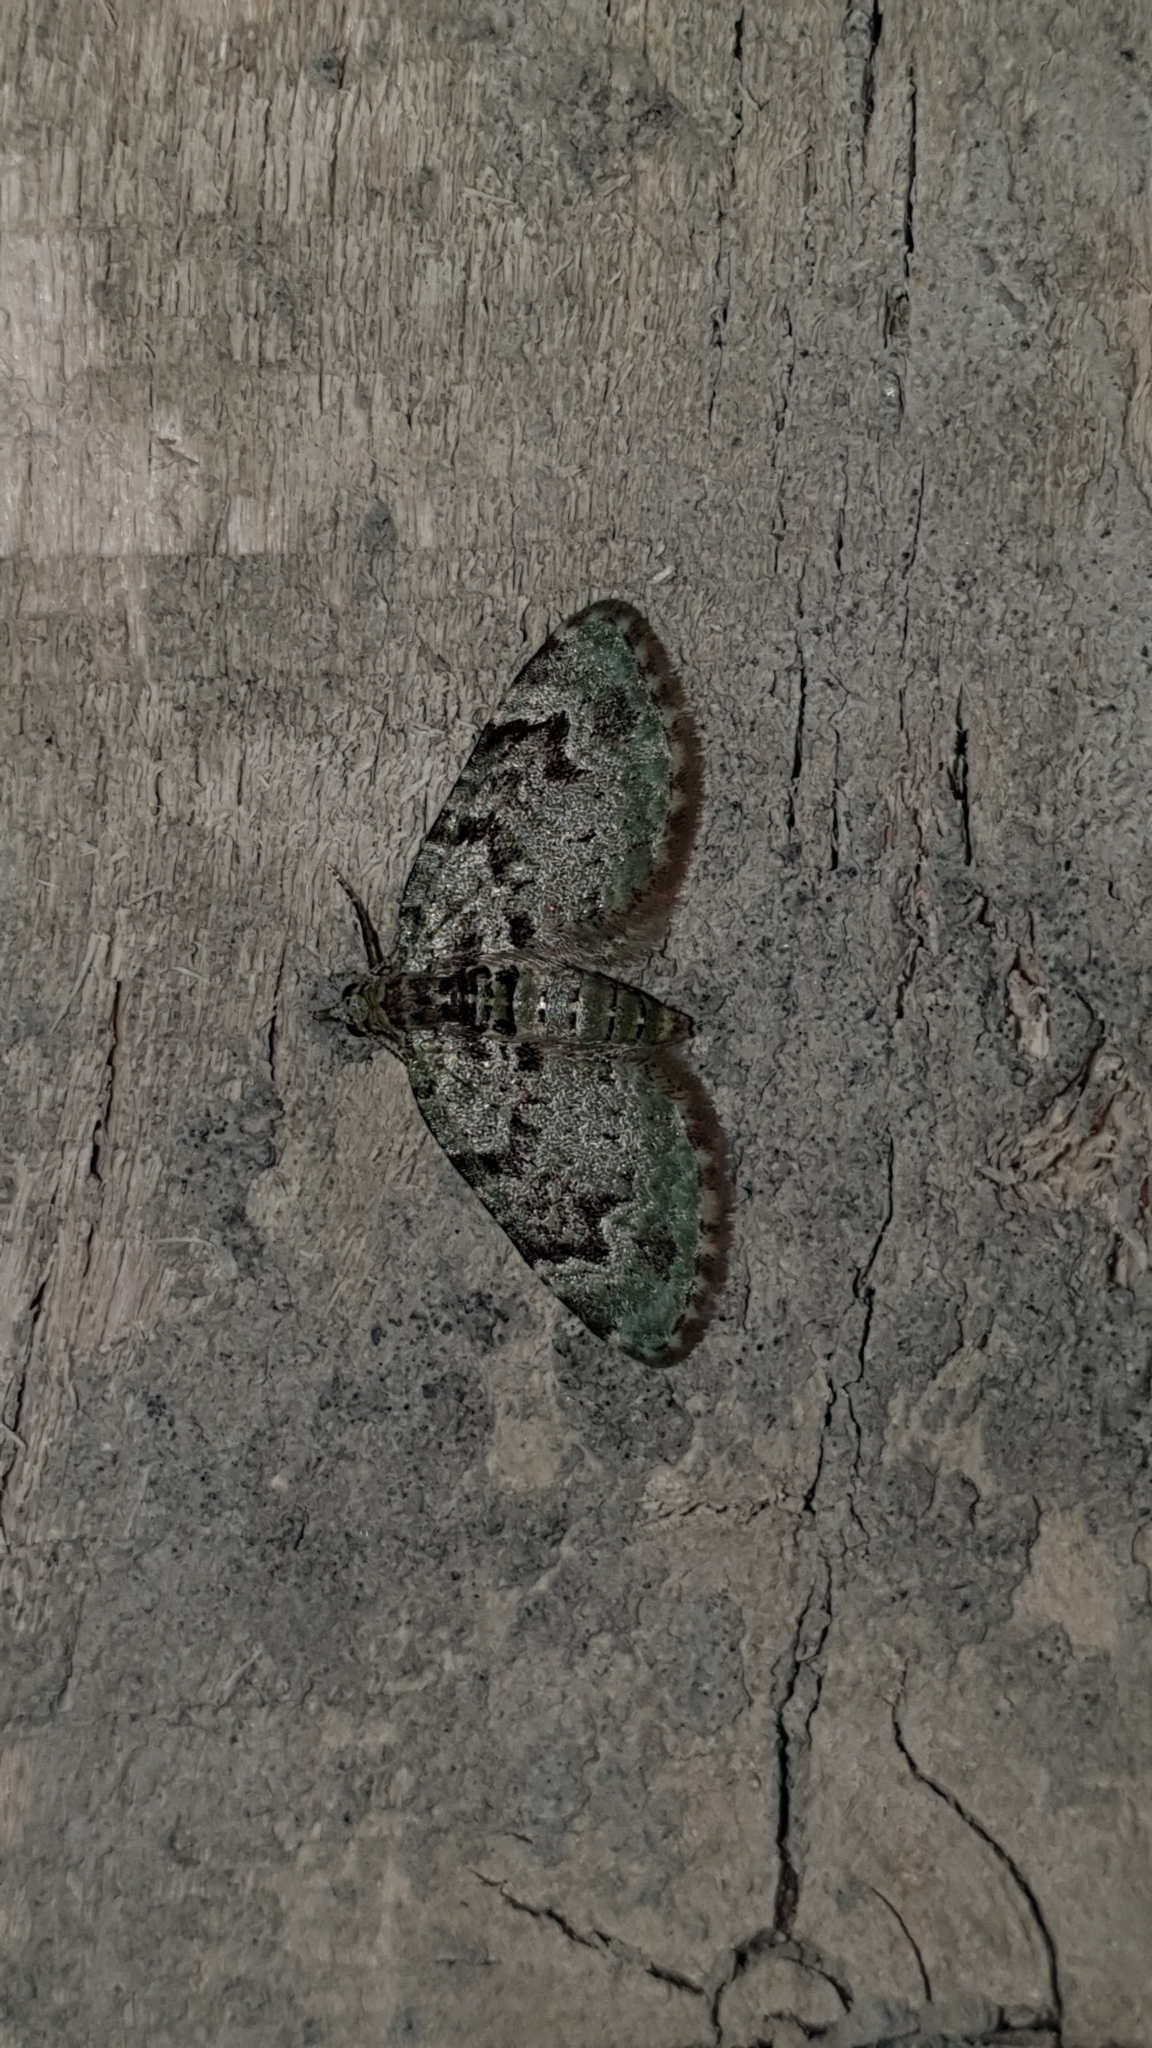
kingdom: Animalia
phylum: Arthropoda
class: Insecta
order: Lepidoptera
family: Geometridae
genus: Chloroclystis
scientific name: Chloroclystis v-ata
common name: V-pug
